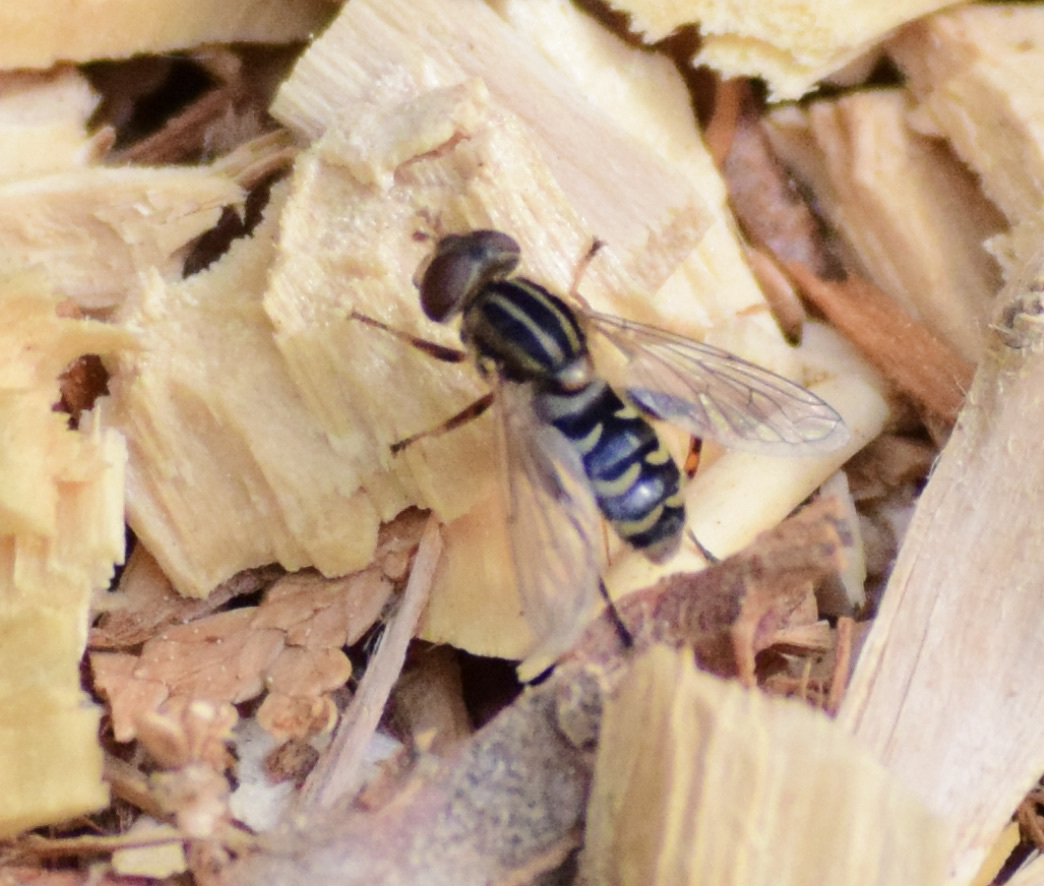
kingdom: Animalia
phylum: Arthropoda
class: Insecta
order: Diptera
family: Syrphidae
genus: Anasimyia
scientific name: Anasimyia
